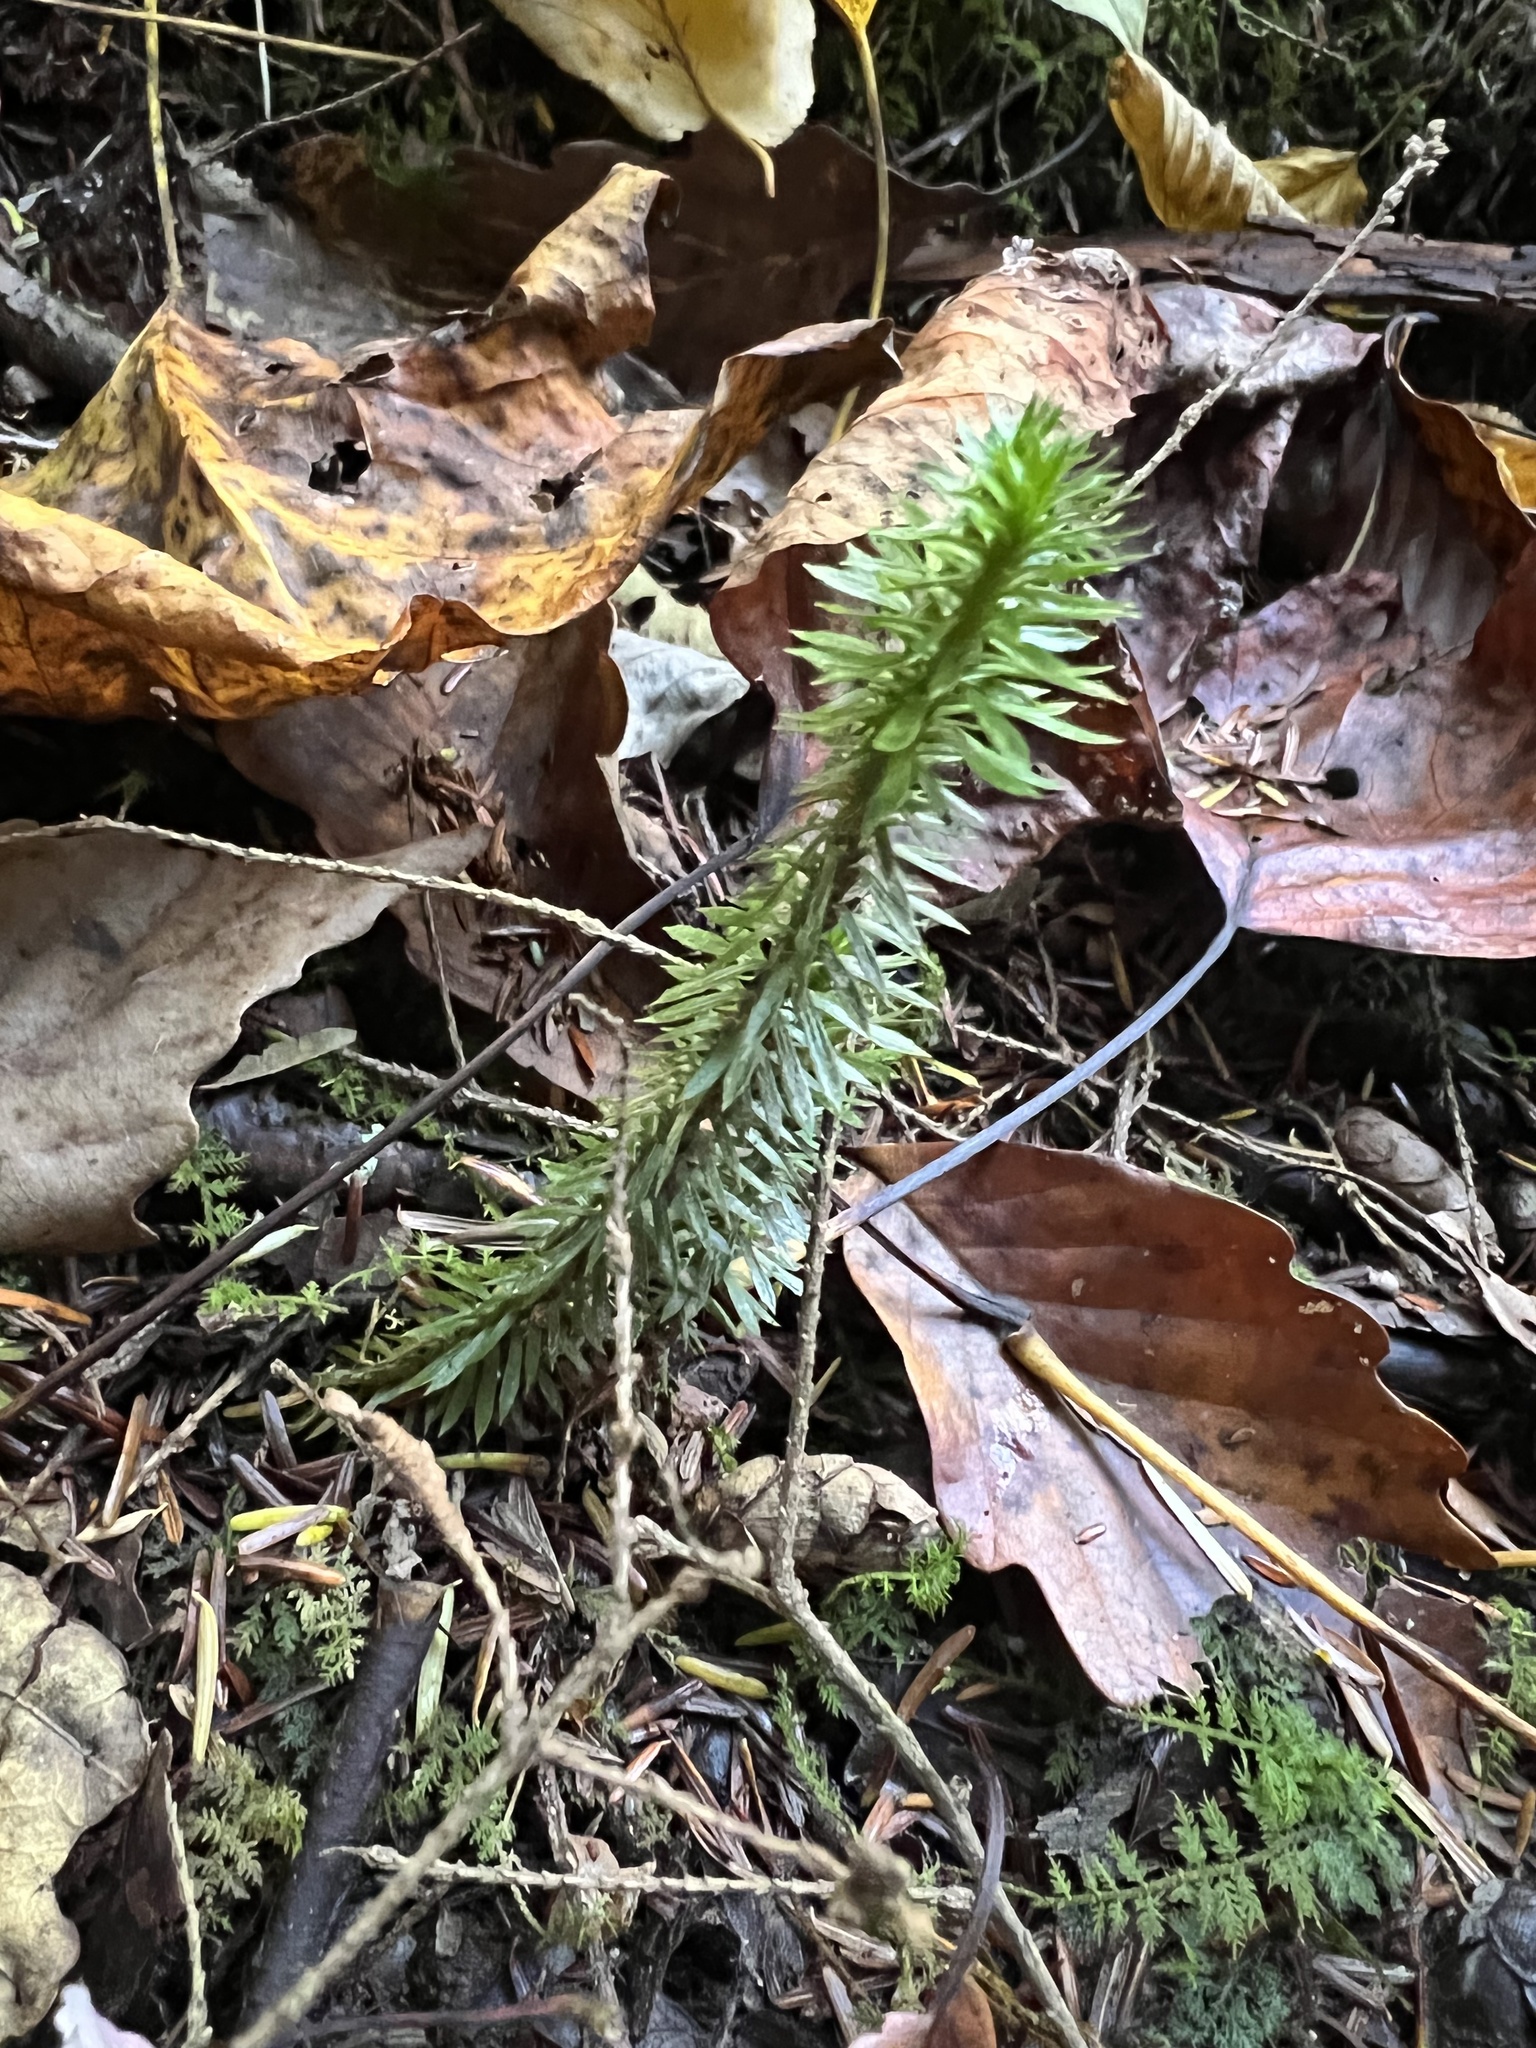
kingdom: Plantae
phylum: Tracheophyta
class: Lycopodiopsida
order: Lycopodiales
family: Lycopodiaceae
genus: Huperzia
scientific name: Huperzia lucidula
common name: Shining clubmoss
